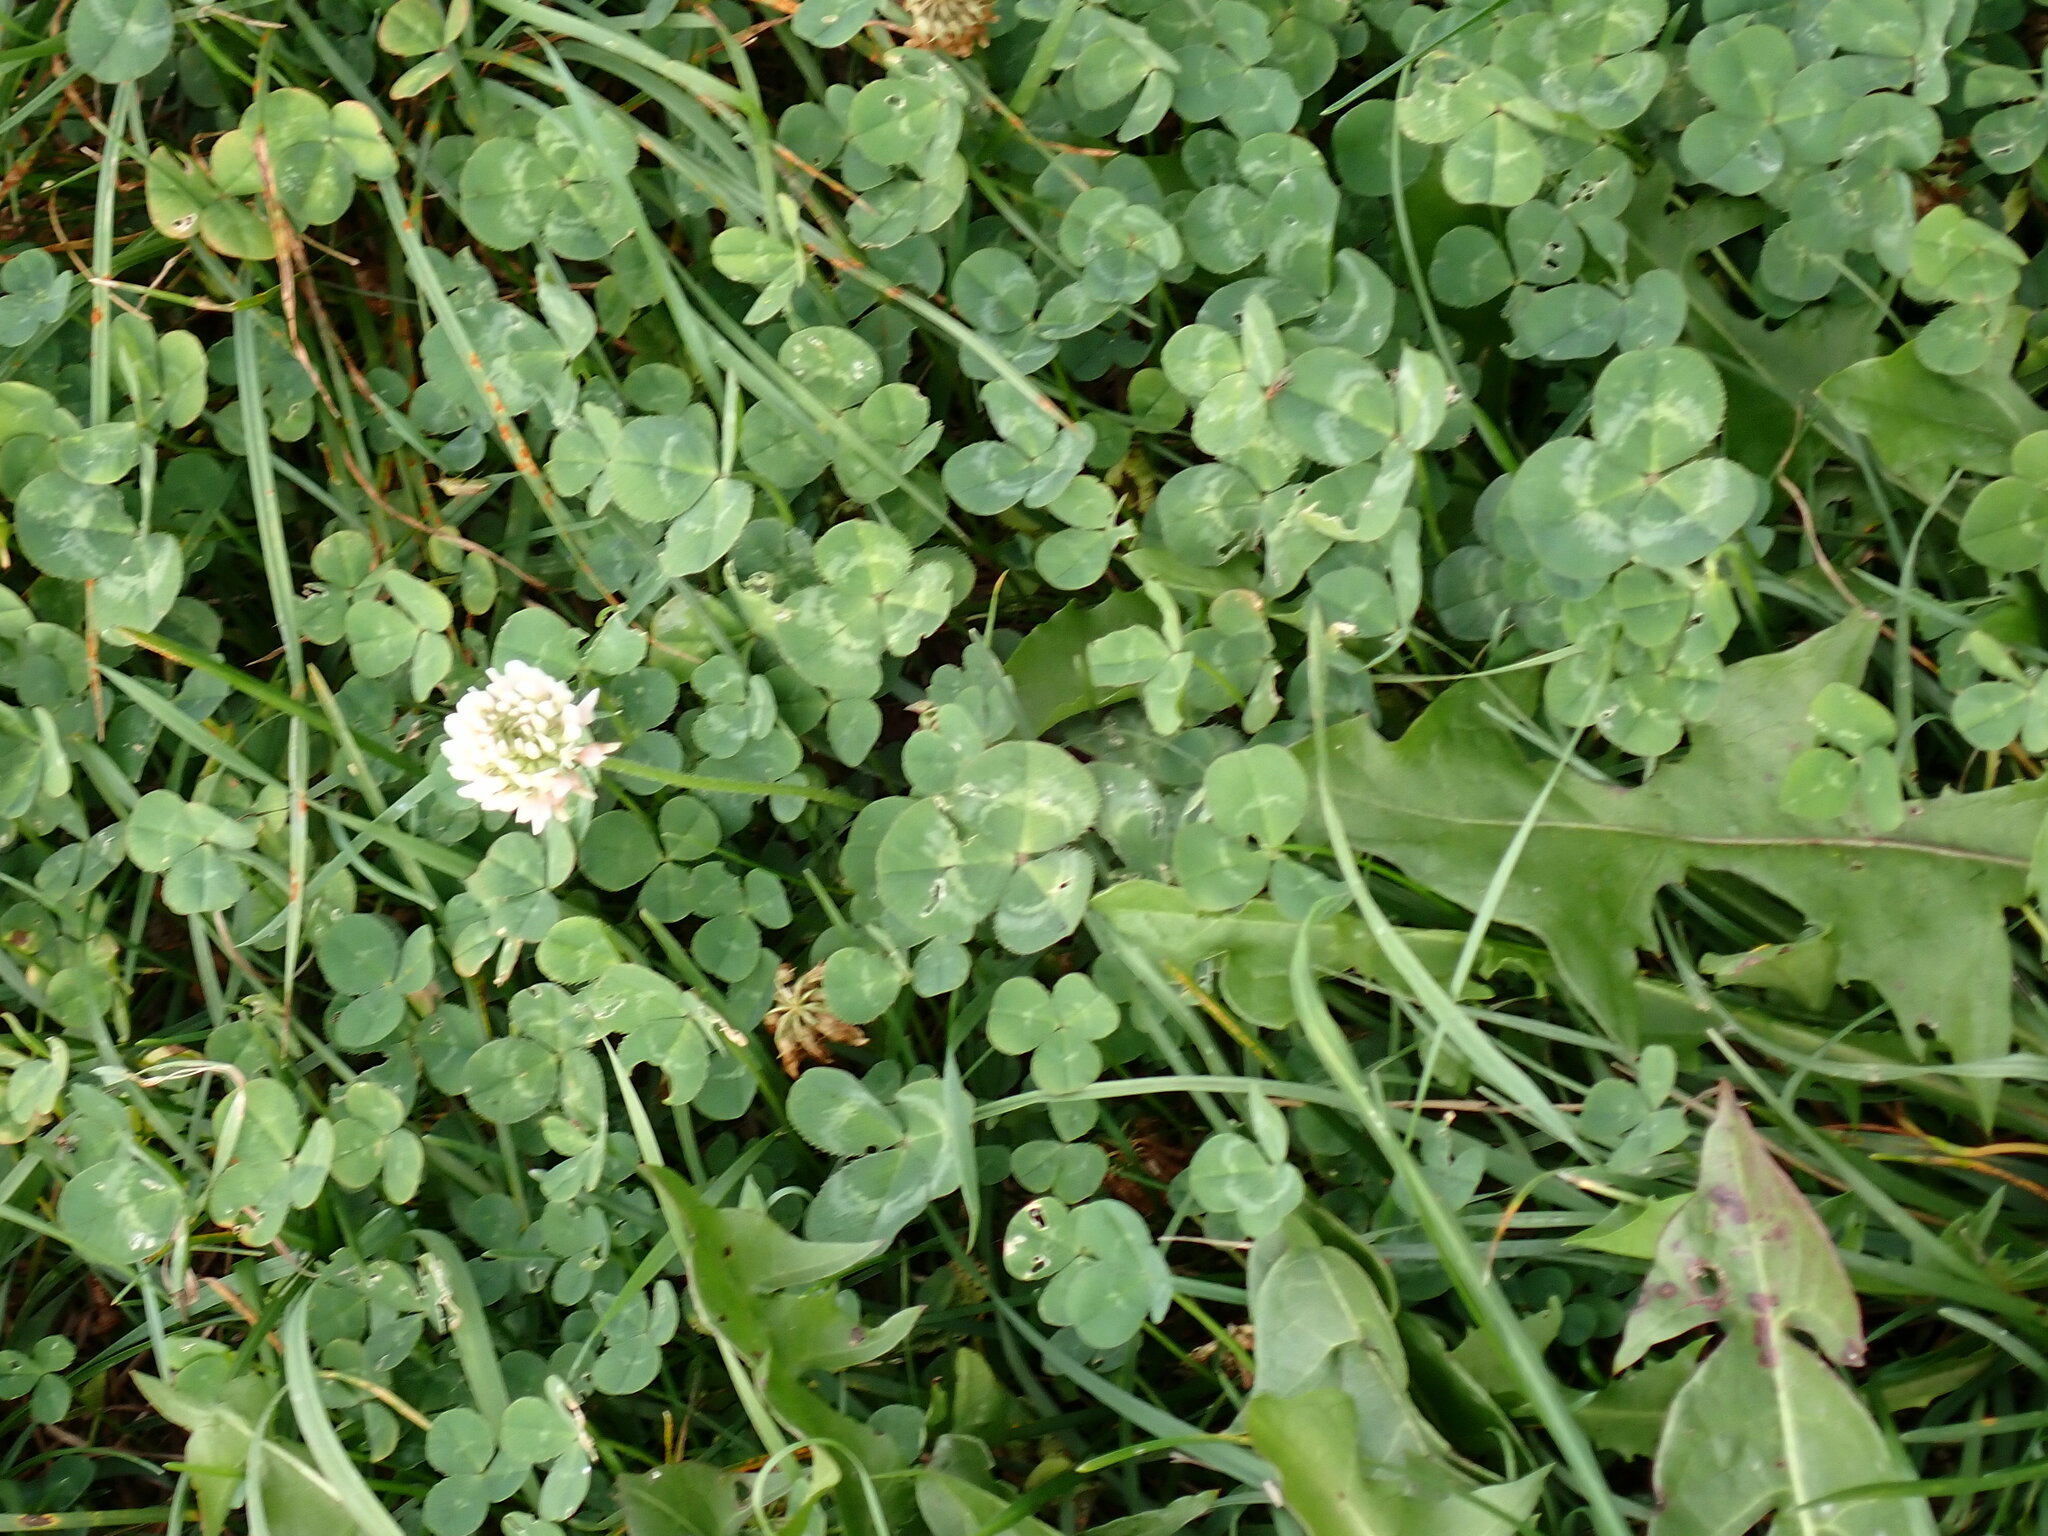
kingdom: Plantae
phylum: Tracheophyta
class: Magnoliopsida
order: Fabales
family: Fabaceae
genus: Trifolium
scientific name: Trifolium repens
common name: White clover
